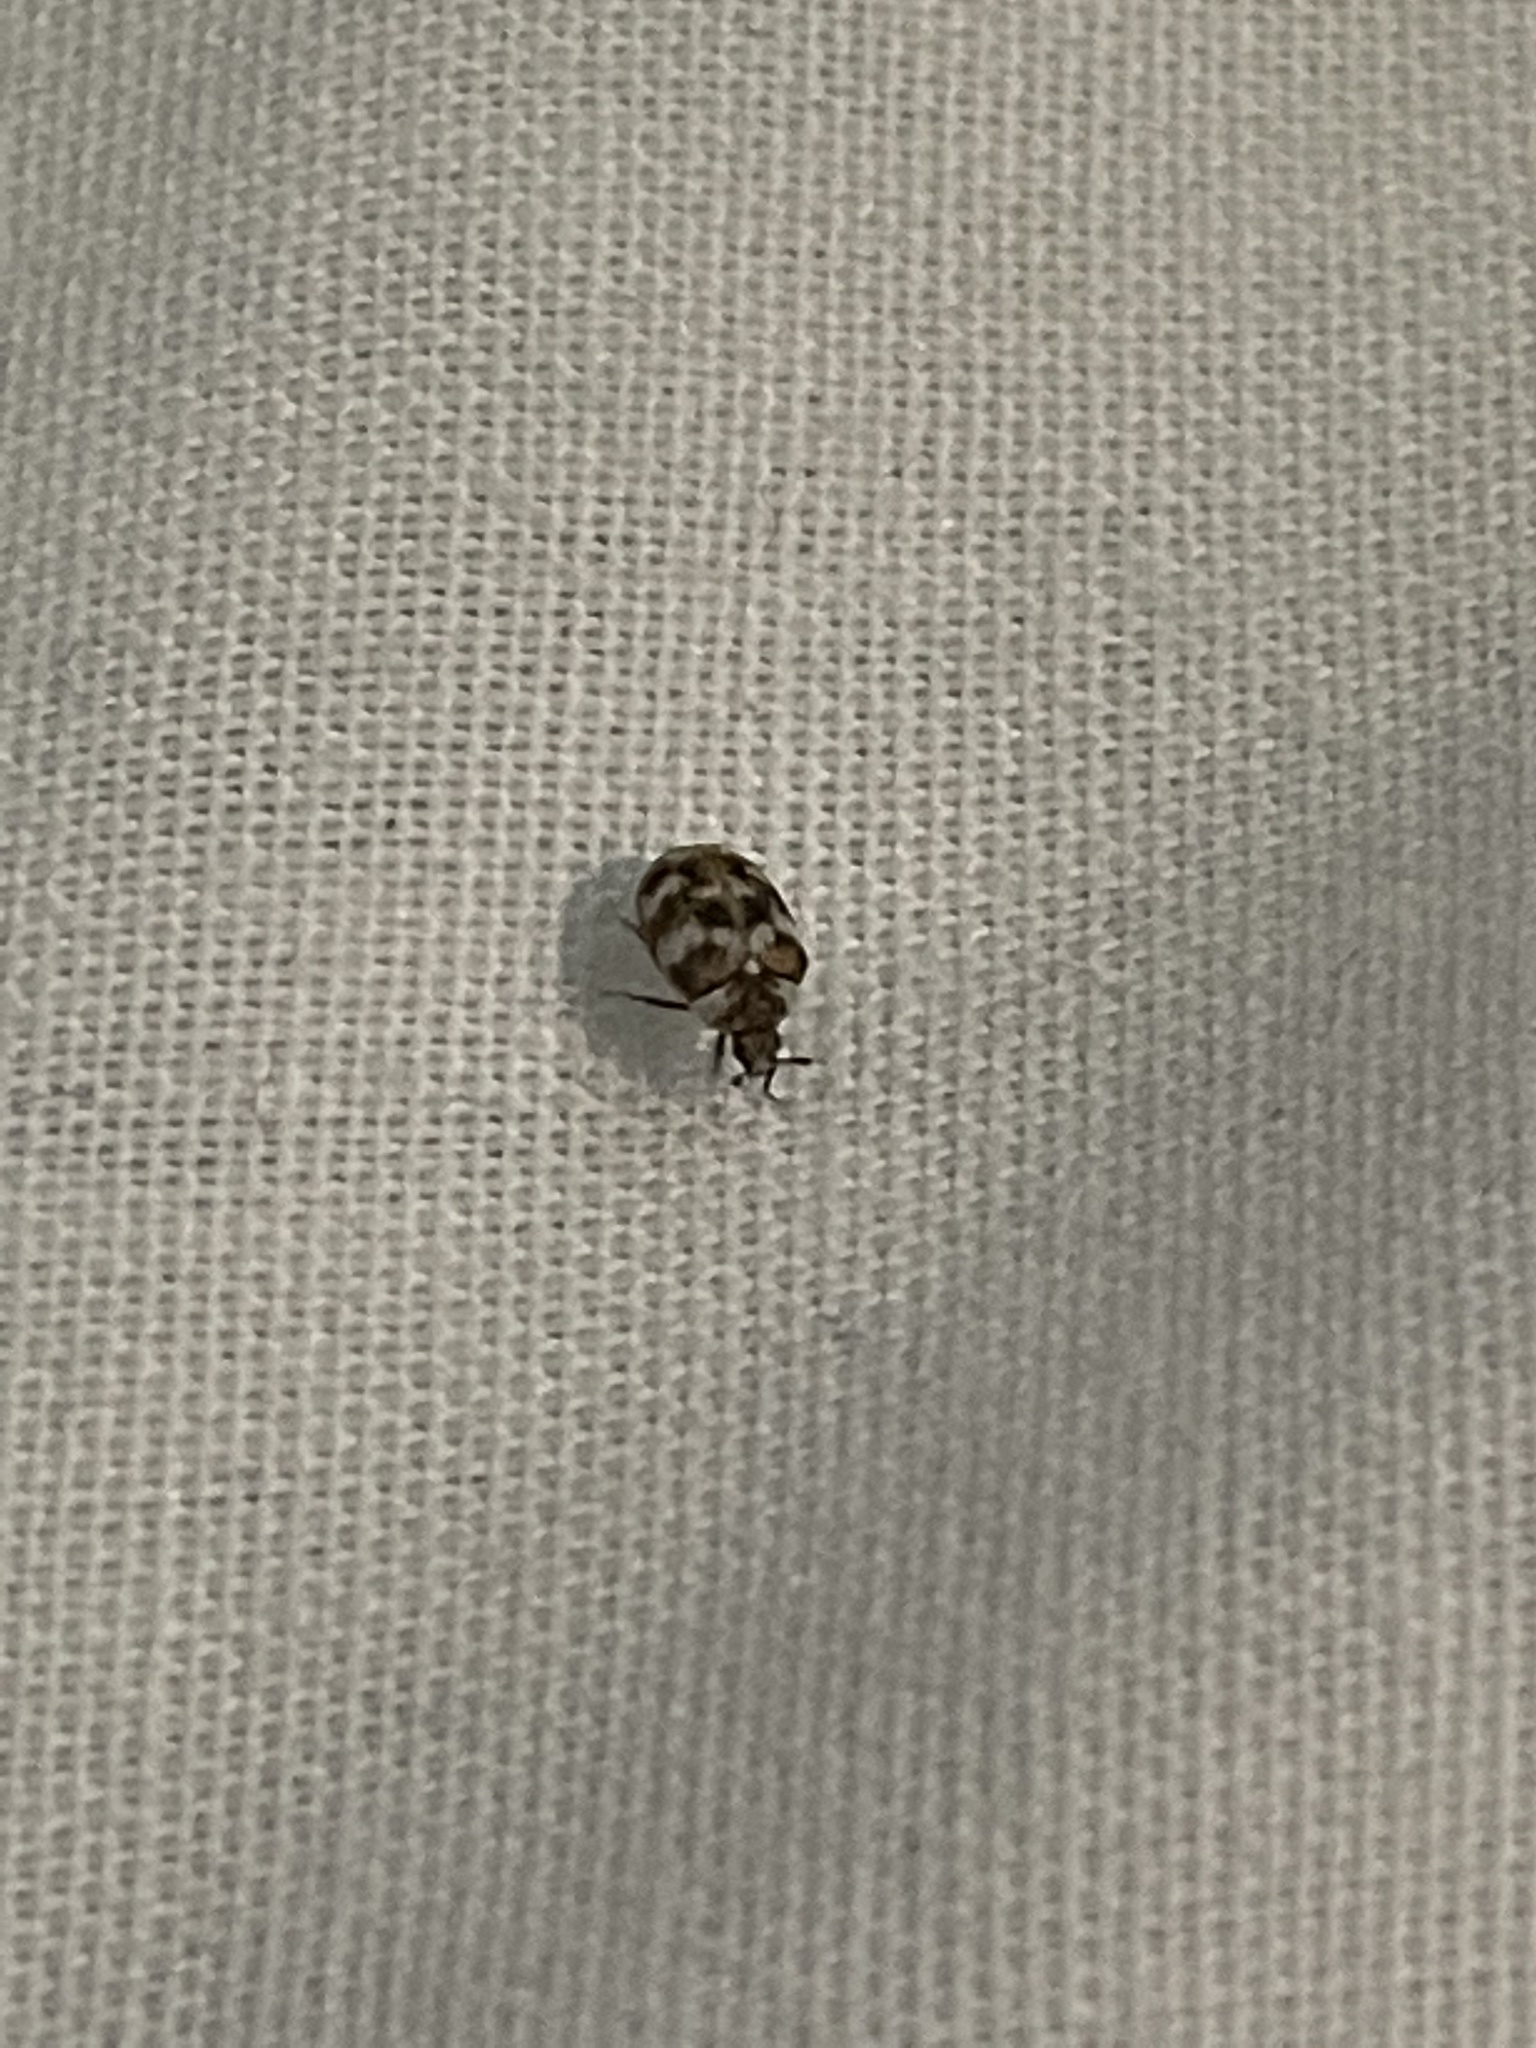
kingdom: Animalia
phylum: Arthropoda
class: Insecta
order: Coleoptera
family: Dermestidae
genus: Anthrenus
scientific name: Anthrenus verbasci
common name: Varied carpet beetle
